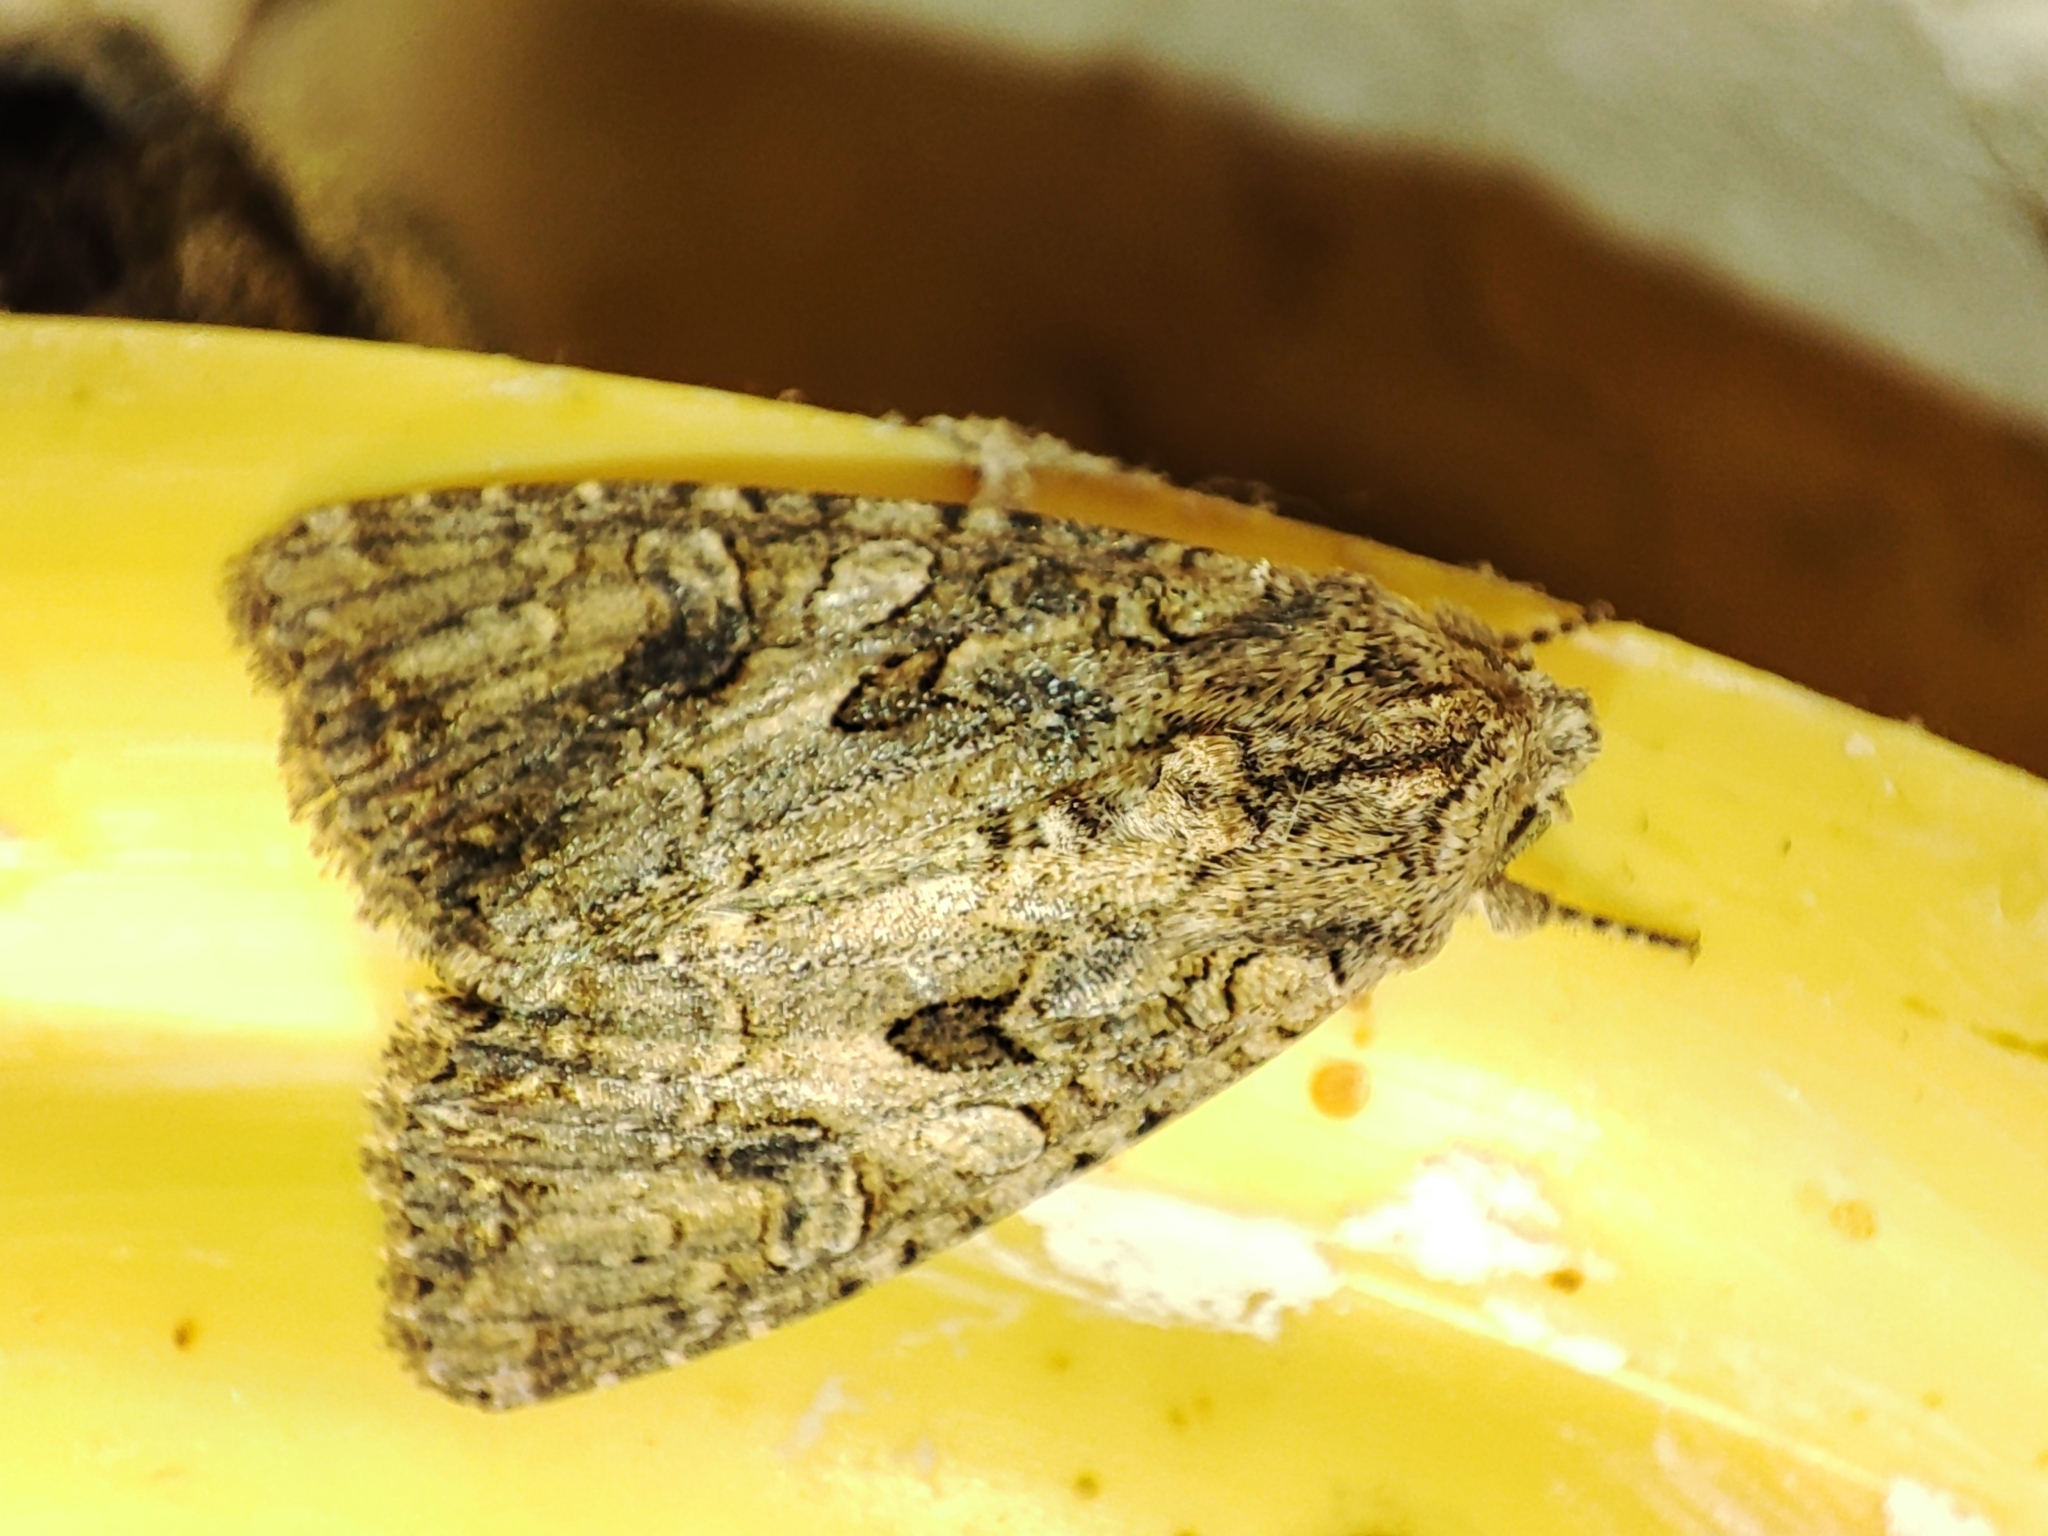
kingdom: Animalia
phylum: Arthropoda
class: Insecta
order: Lepidoptera
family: Noctuidae
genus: Anarta
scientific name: Anarta trifolii
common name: Clover cutworm moth
